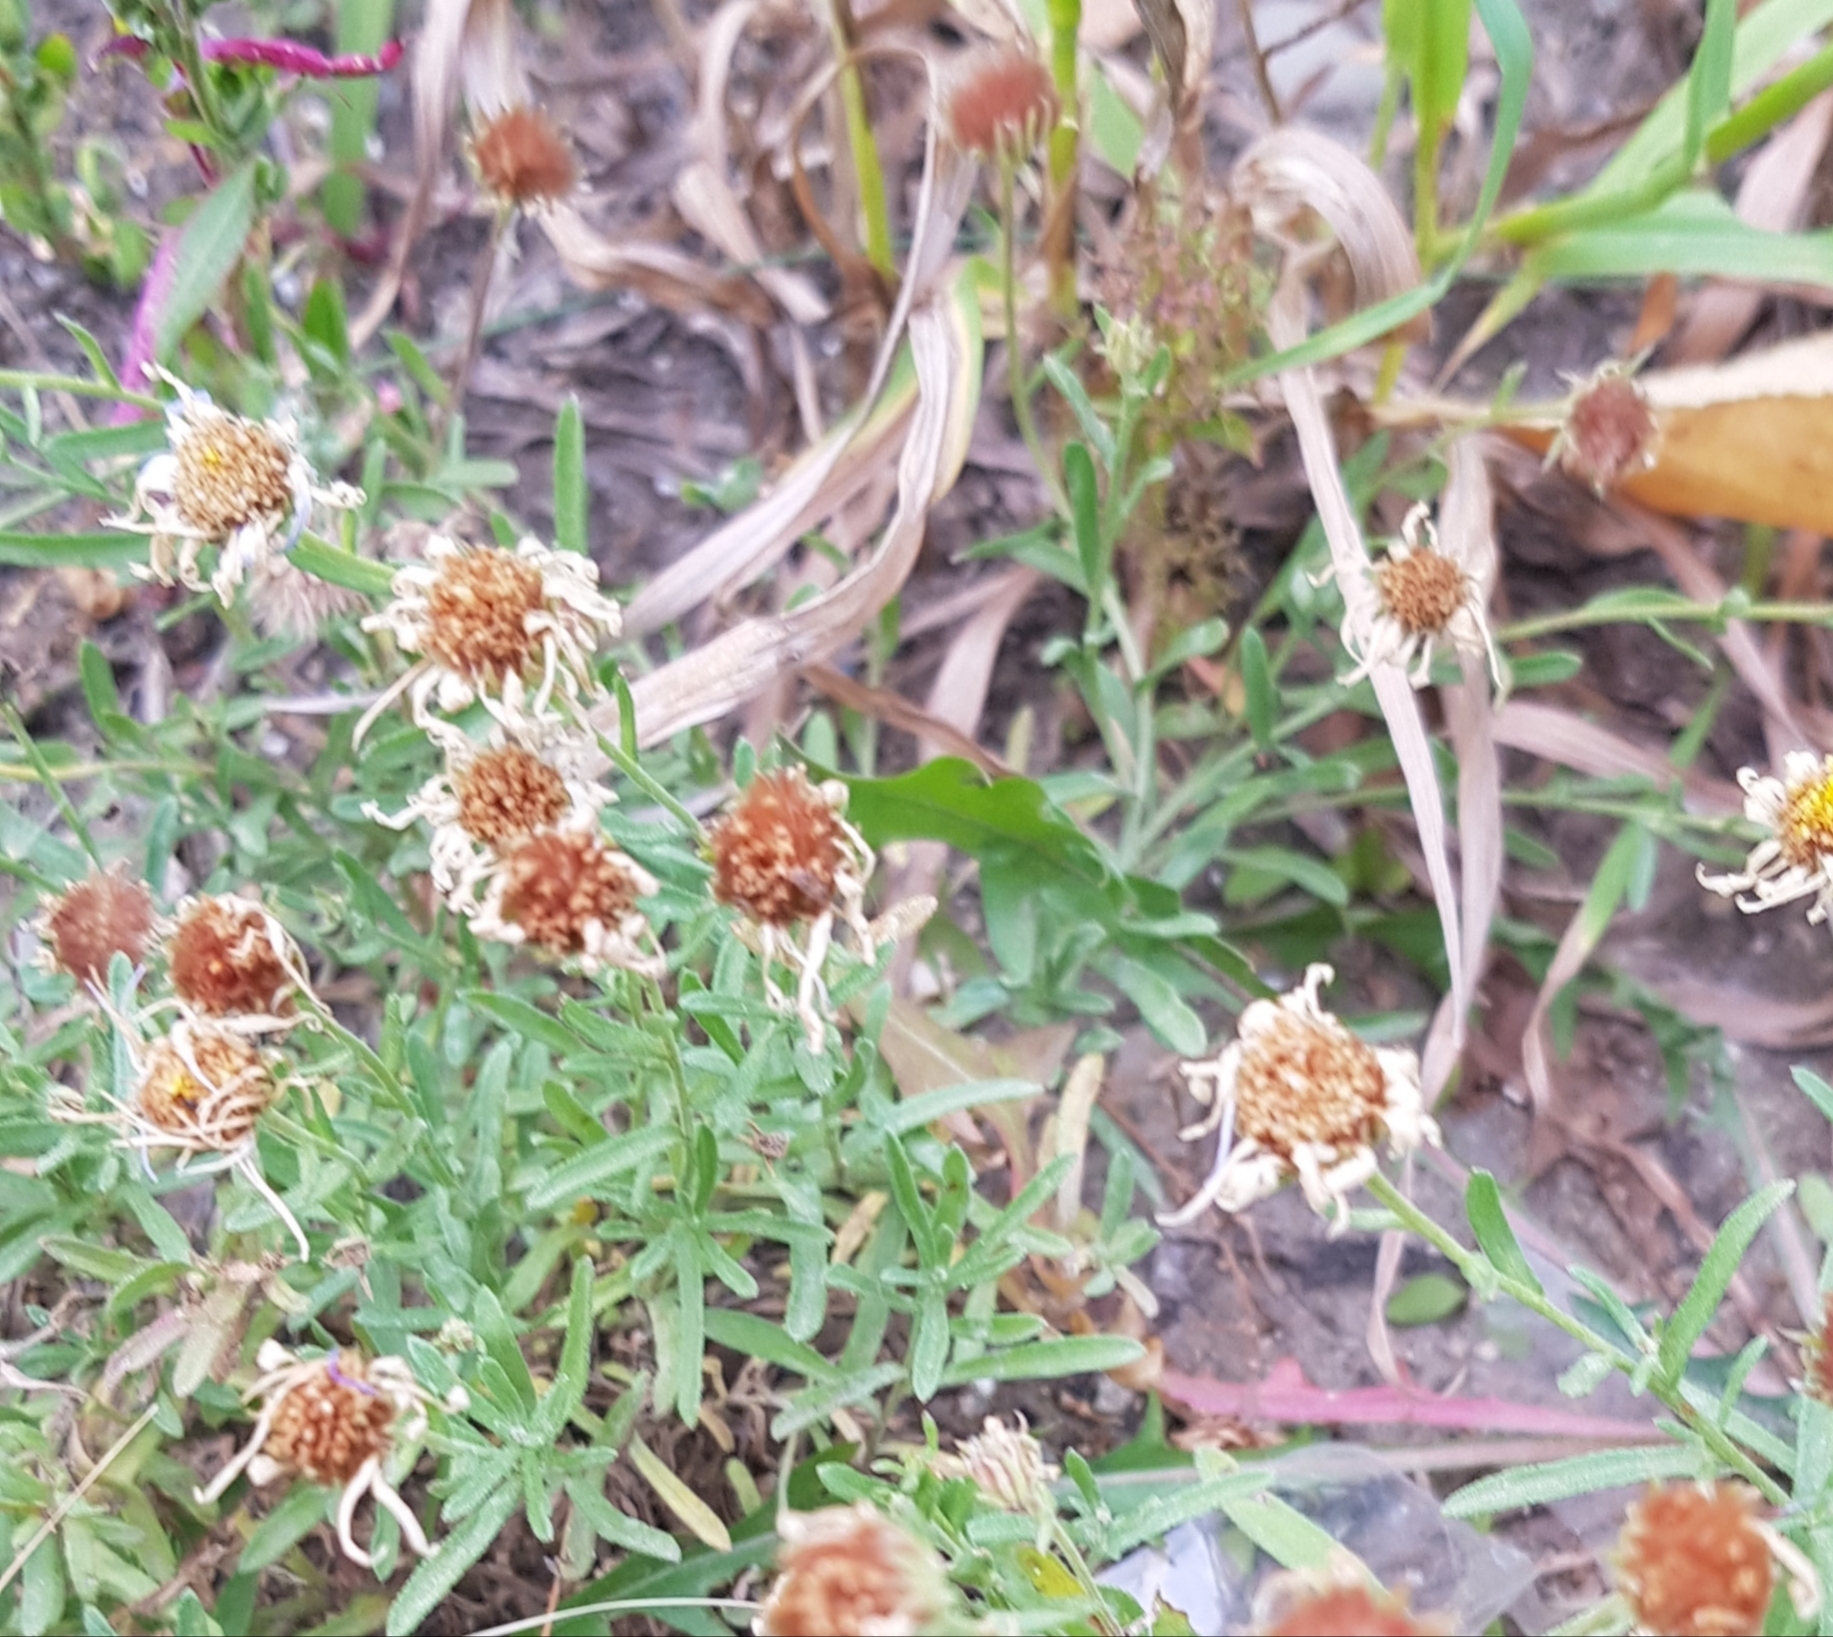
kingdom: Plantae
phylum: Tracheophyta
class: Magnoliopsida
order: Asterales
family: Asteraceae
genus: Heteropappus
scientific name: Heteropappus altaicus
